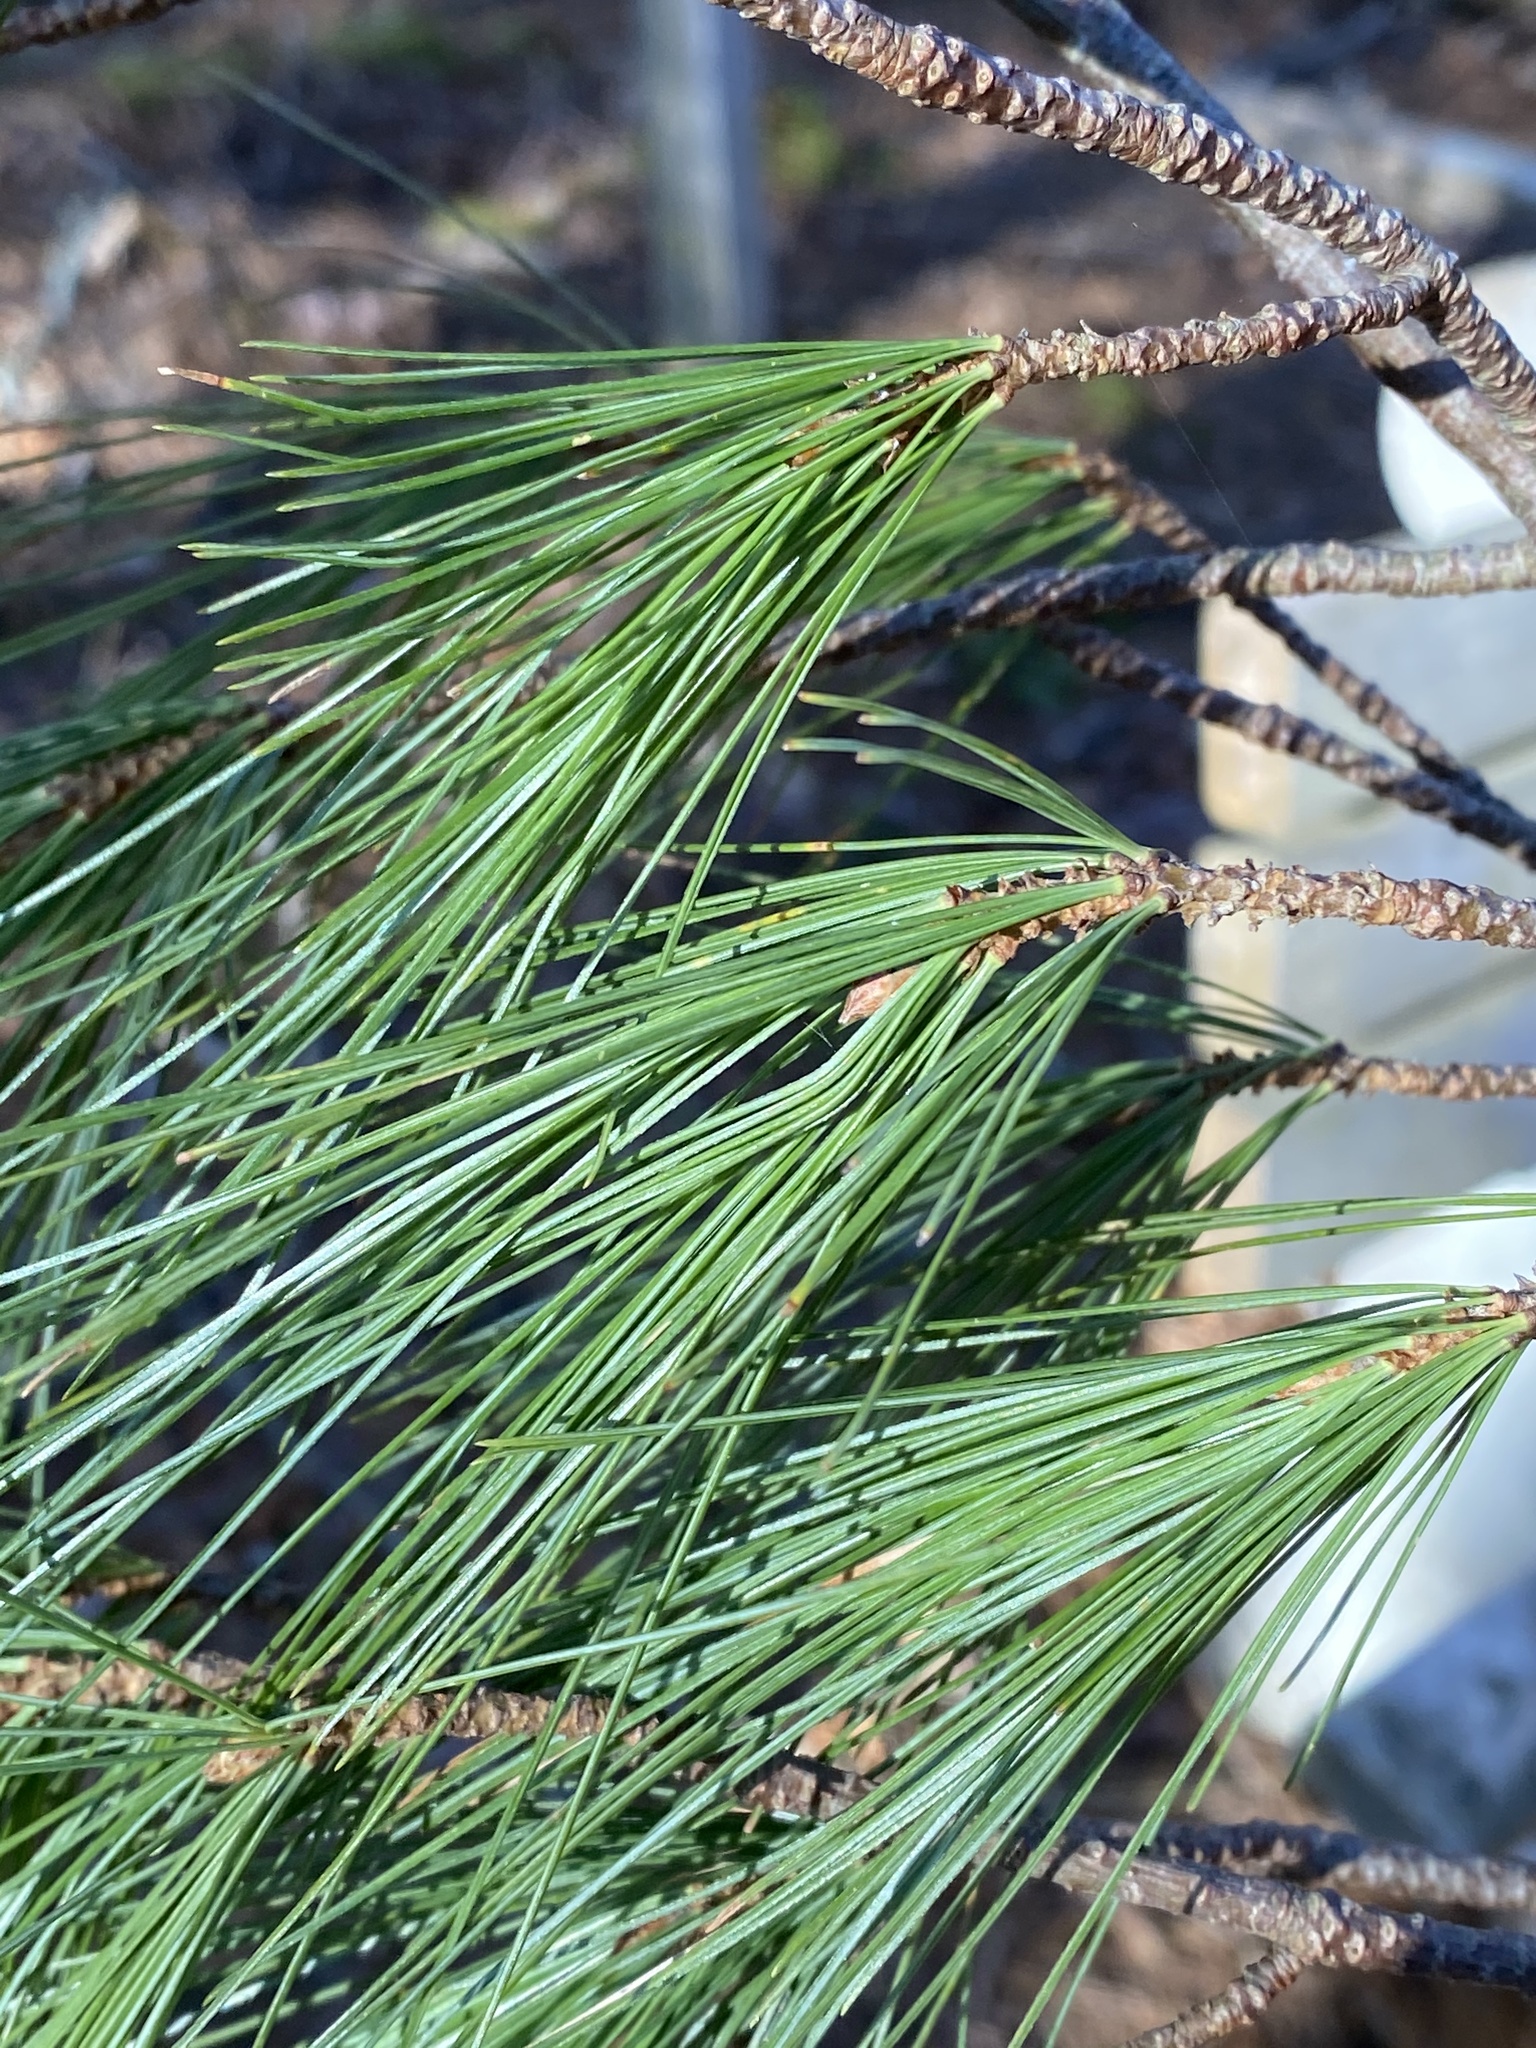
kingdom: Plantae
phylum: Tracheophyta
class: Pinopsida
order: Pinales
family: Pinaceae
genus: Pinus
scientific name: Pinus strobus
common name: Weymouth pine
